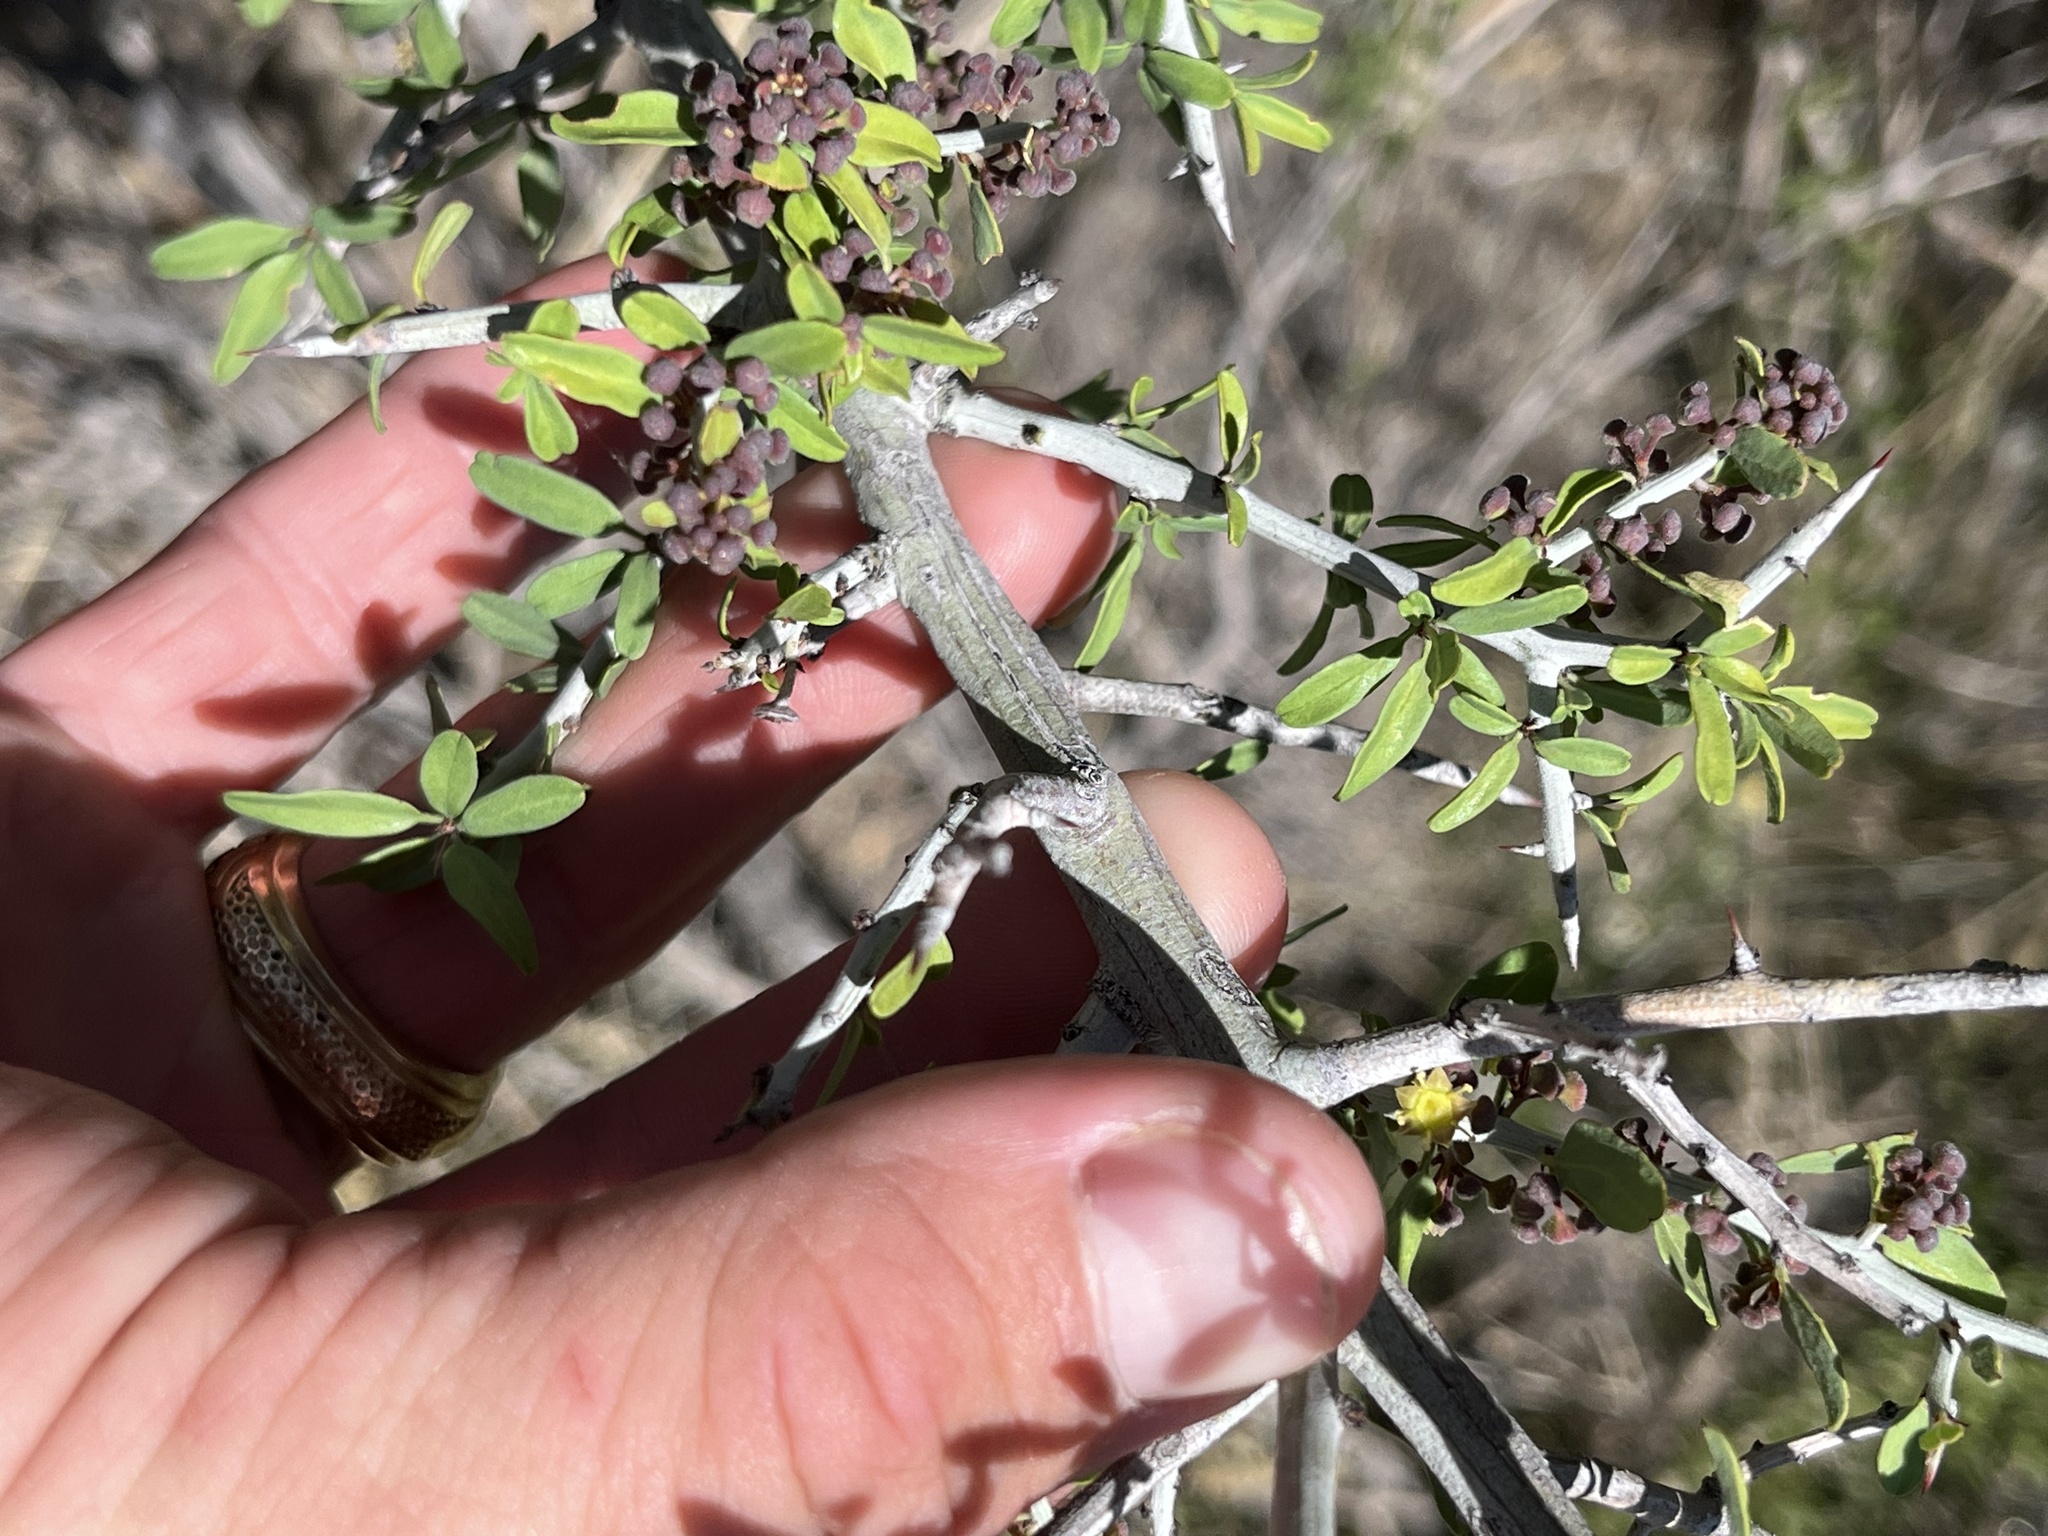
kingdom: Plantae
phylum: Tracheophyta
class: Magnoliopsida
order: Rosales
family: Rhamnaceae
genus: Sarcomphalus
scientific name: Sarcomphalus obtusifolius
